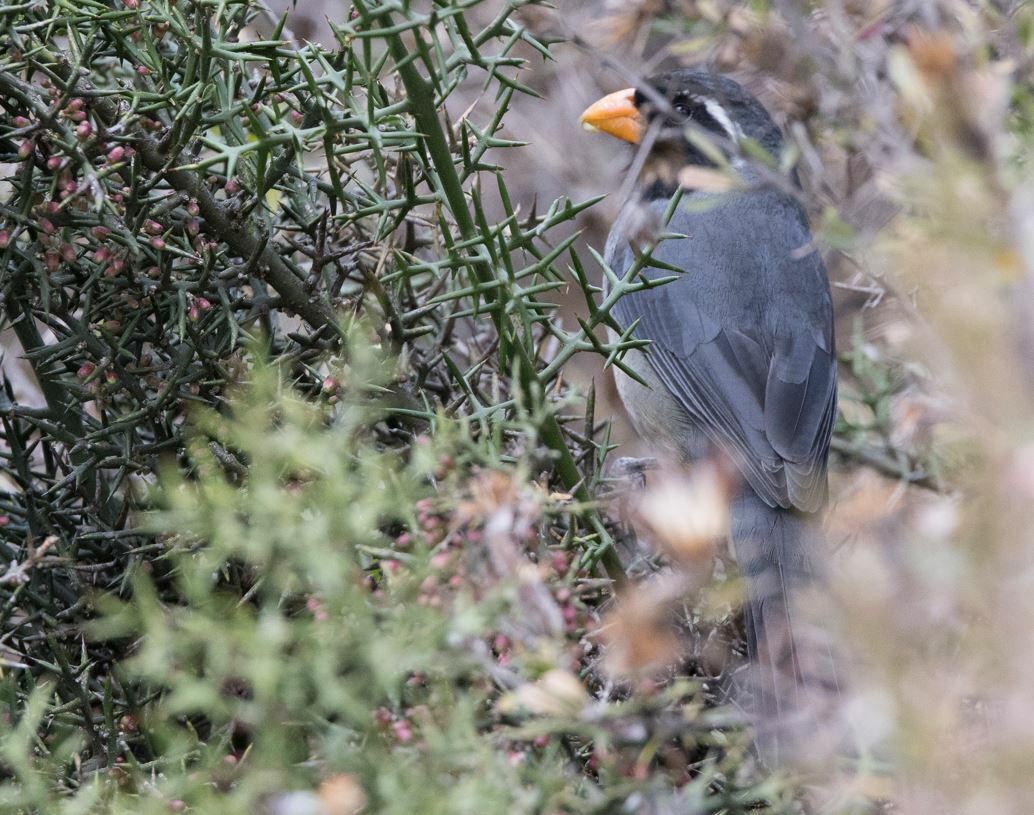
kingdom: Animalia
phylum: Chordata
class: Aves
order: Passeriformes
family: Thraupidae
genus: Saltator
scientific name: Saltator aurantiirostris
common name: Golden-billed saltator
